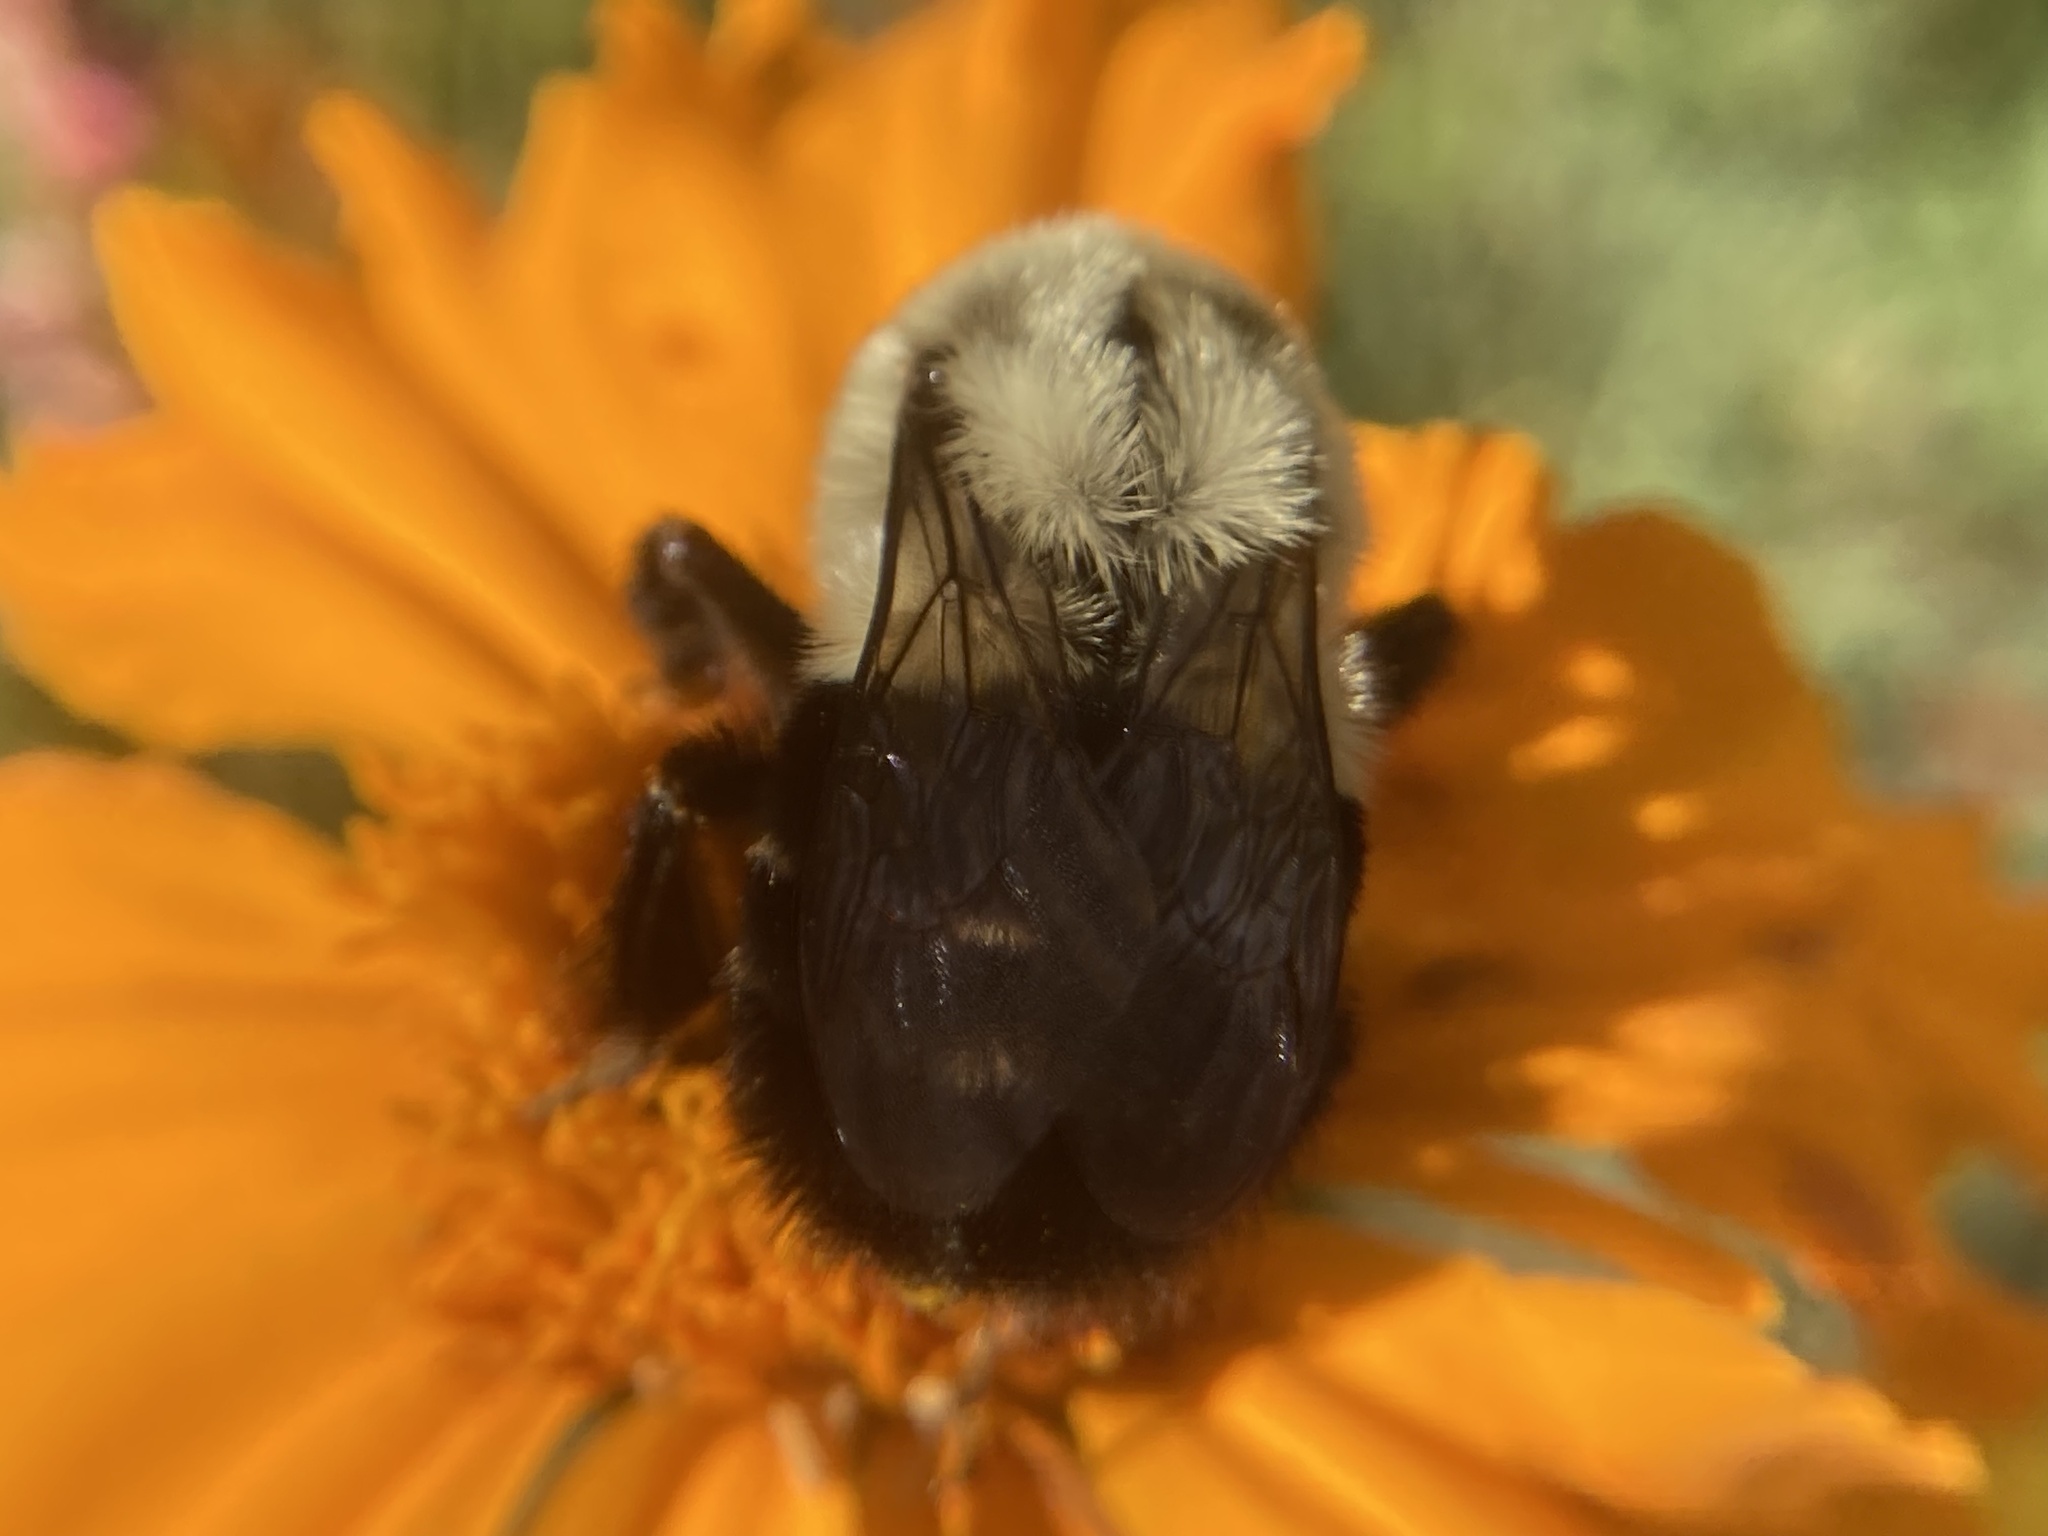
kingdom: Animalia
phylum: Arthropoda
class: Insecta
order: Hymenoptera
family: Apidae
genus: Bombus
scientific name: Bombus impatiens
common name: Common eastern bumble bee
